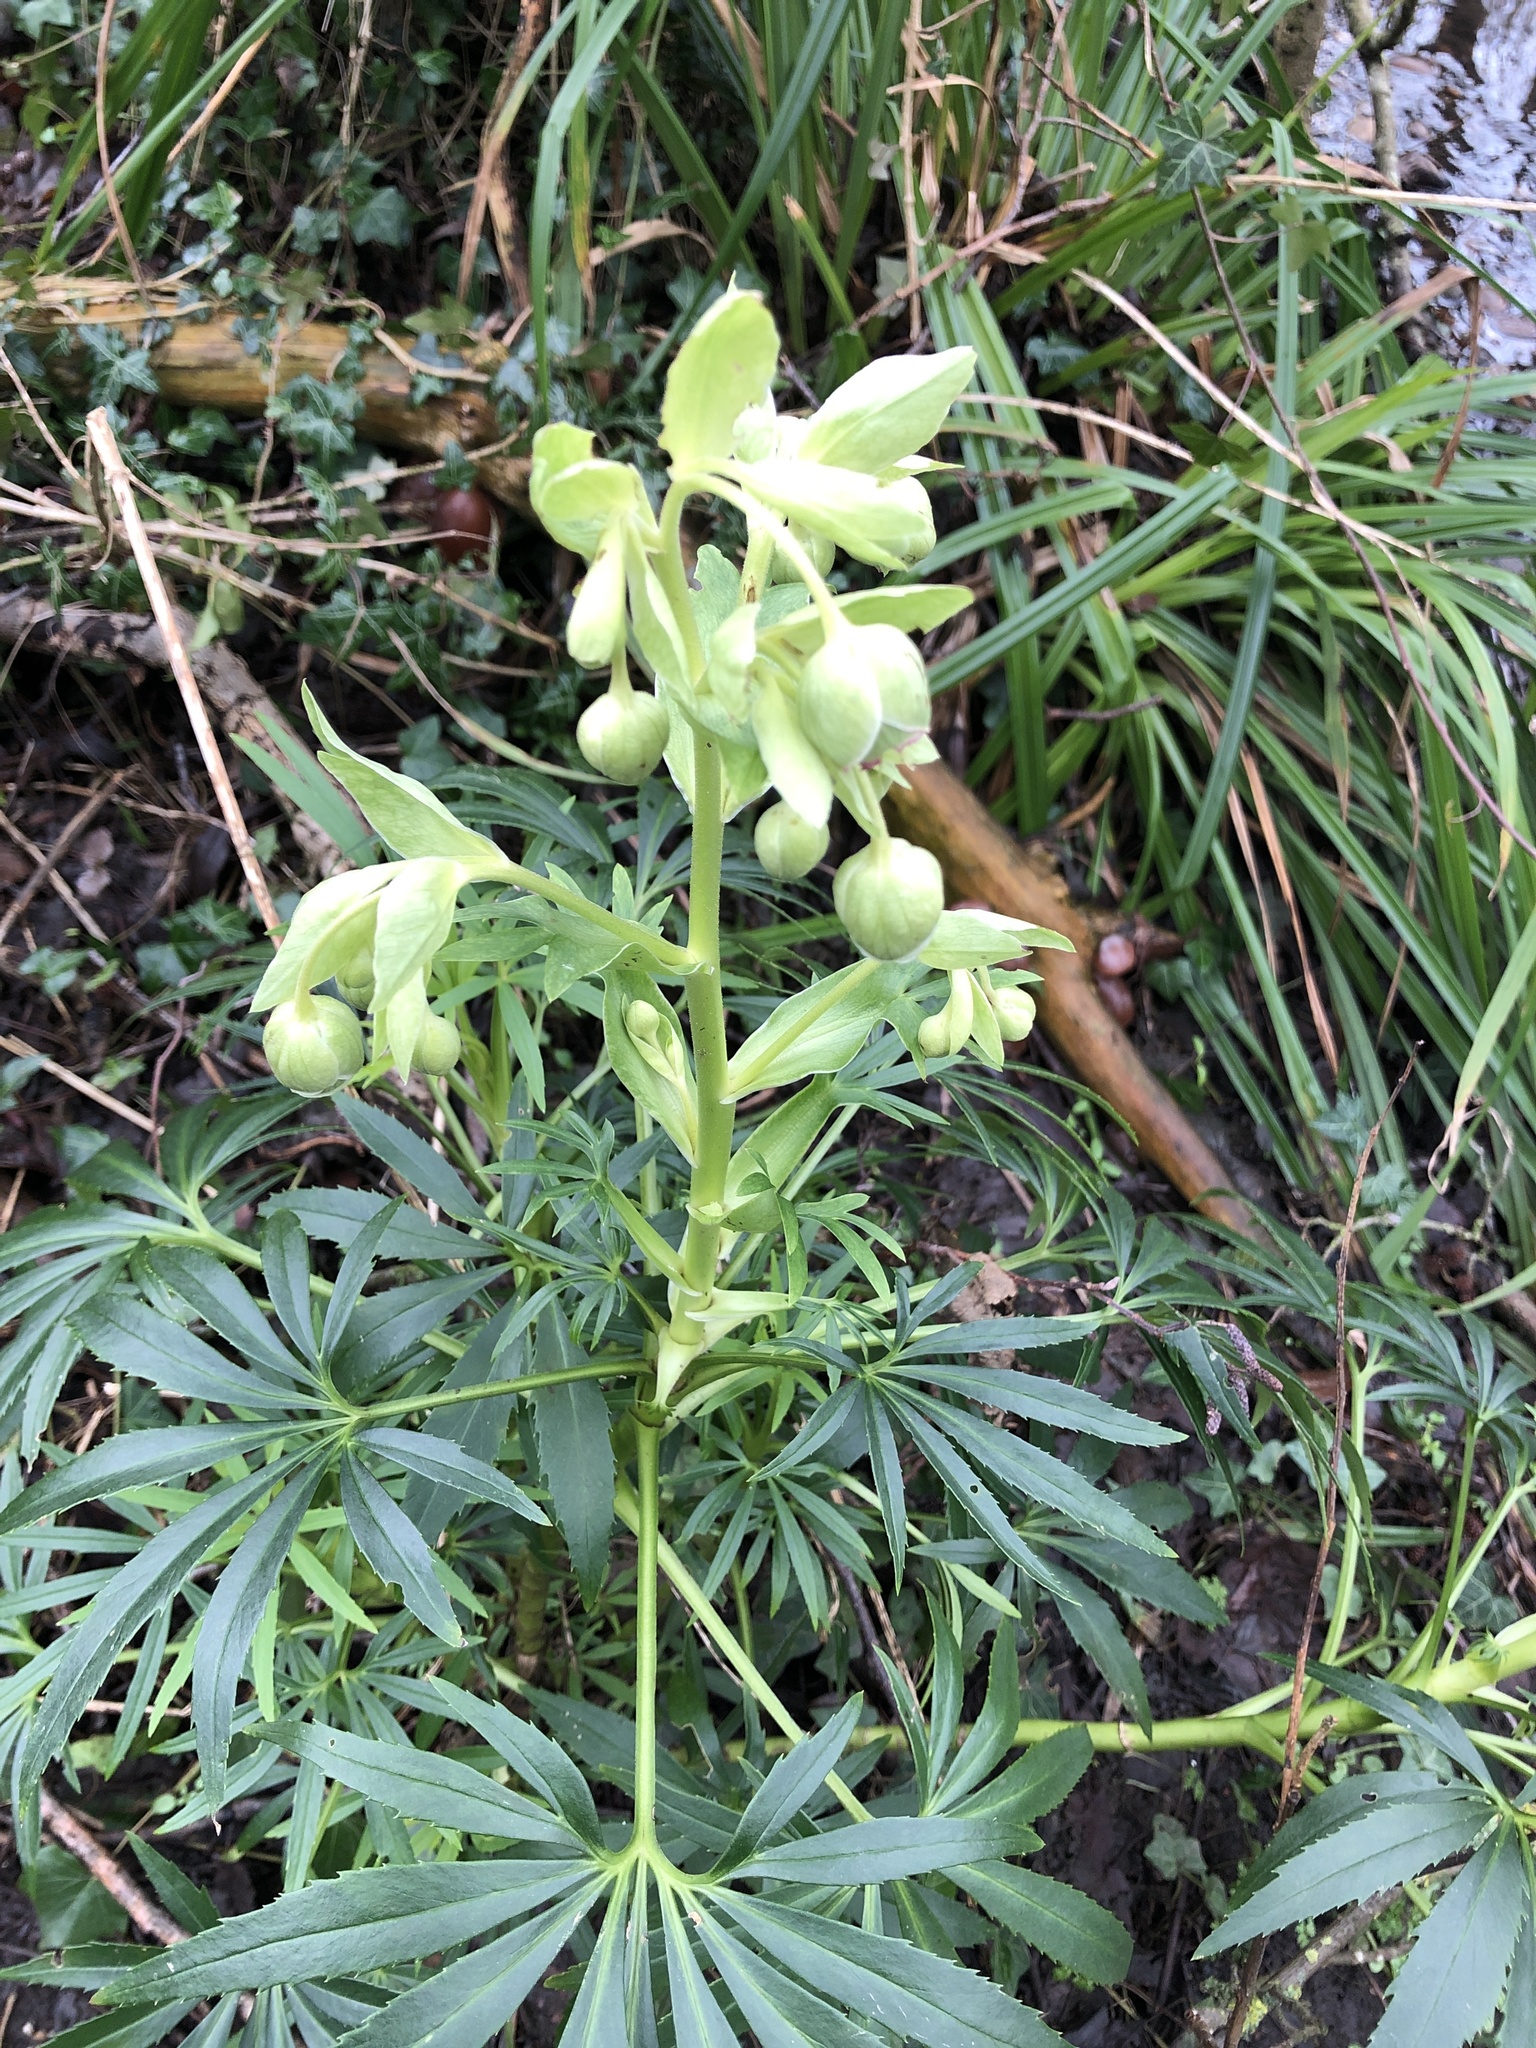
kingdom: Plantae
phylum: Tracheophyta
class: Magnoliopsida
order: Ranunculales
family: Ranunculaceae
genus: Helleborus
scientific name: Helleborus foetidus
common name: Stinking hellebore
